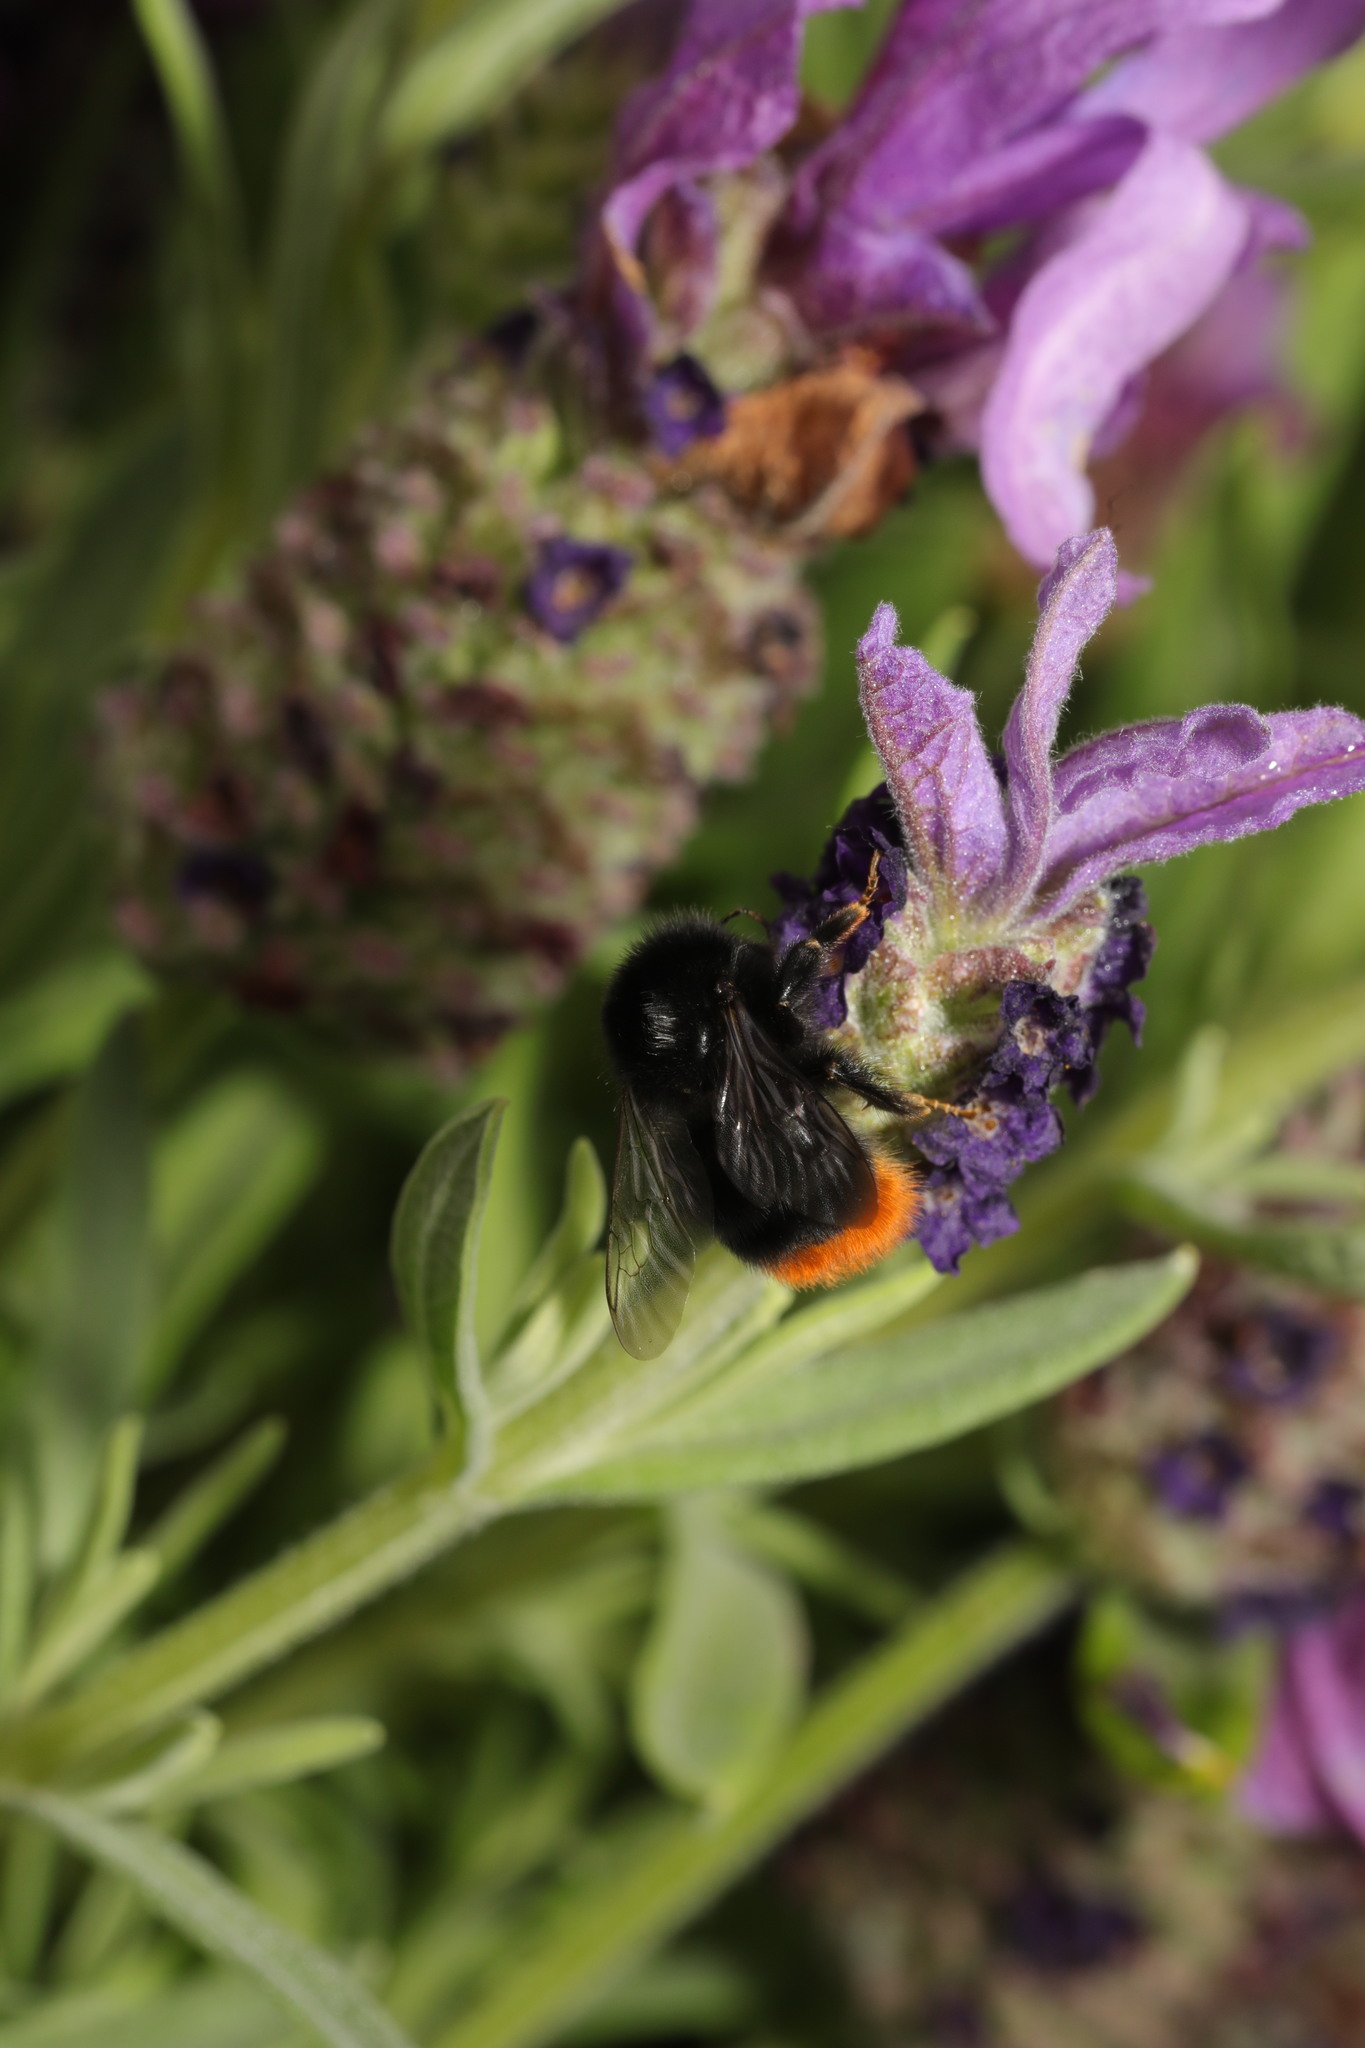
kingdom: Animalia
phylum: Arthropoda
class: Insecta
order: Hymenoptera
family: Apidae
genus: Bombus
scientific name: Bombus lapidarius
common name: Large red-tailed humble-bee
